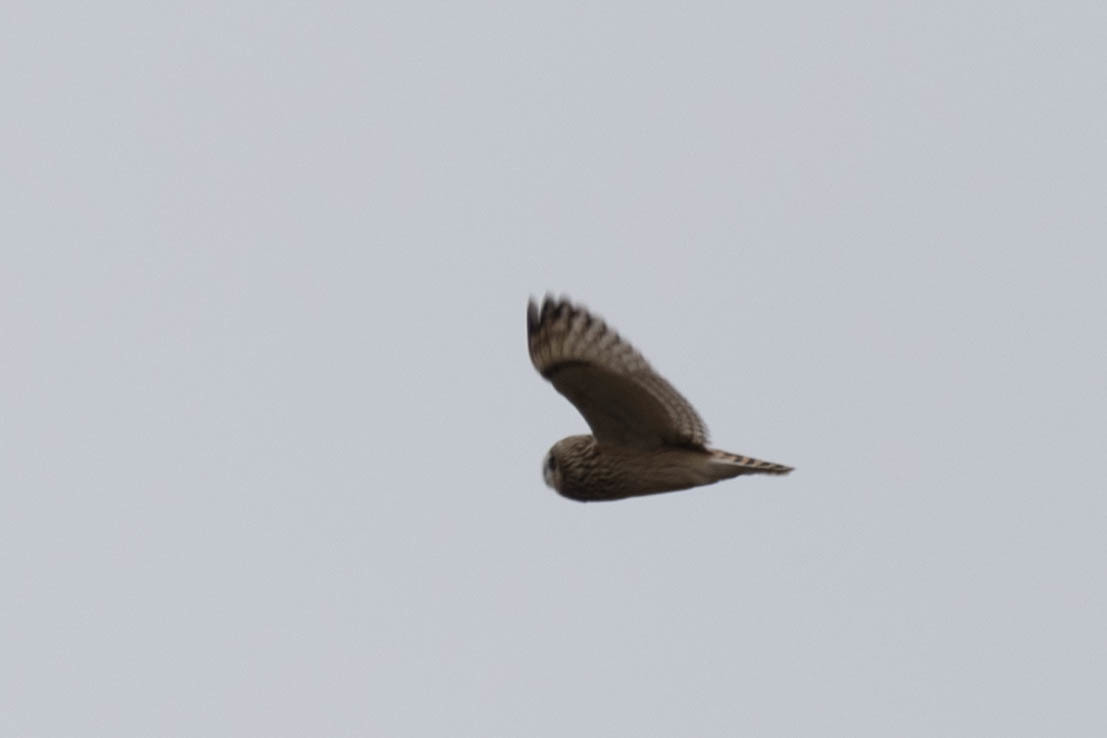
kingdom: Animalia
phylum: Chordata
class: Aves
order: Strigiformes
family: Strigidae
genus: Asio
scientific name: Asio flammeus
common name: Short-eared owl
